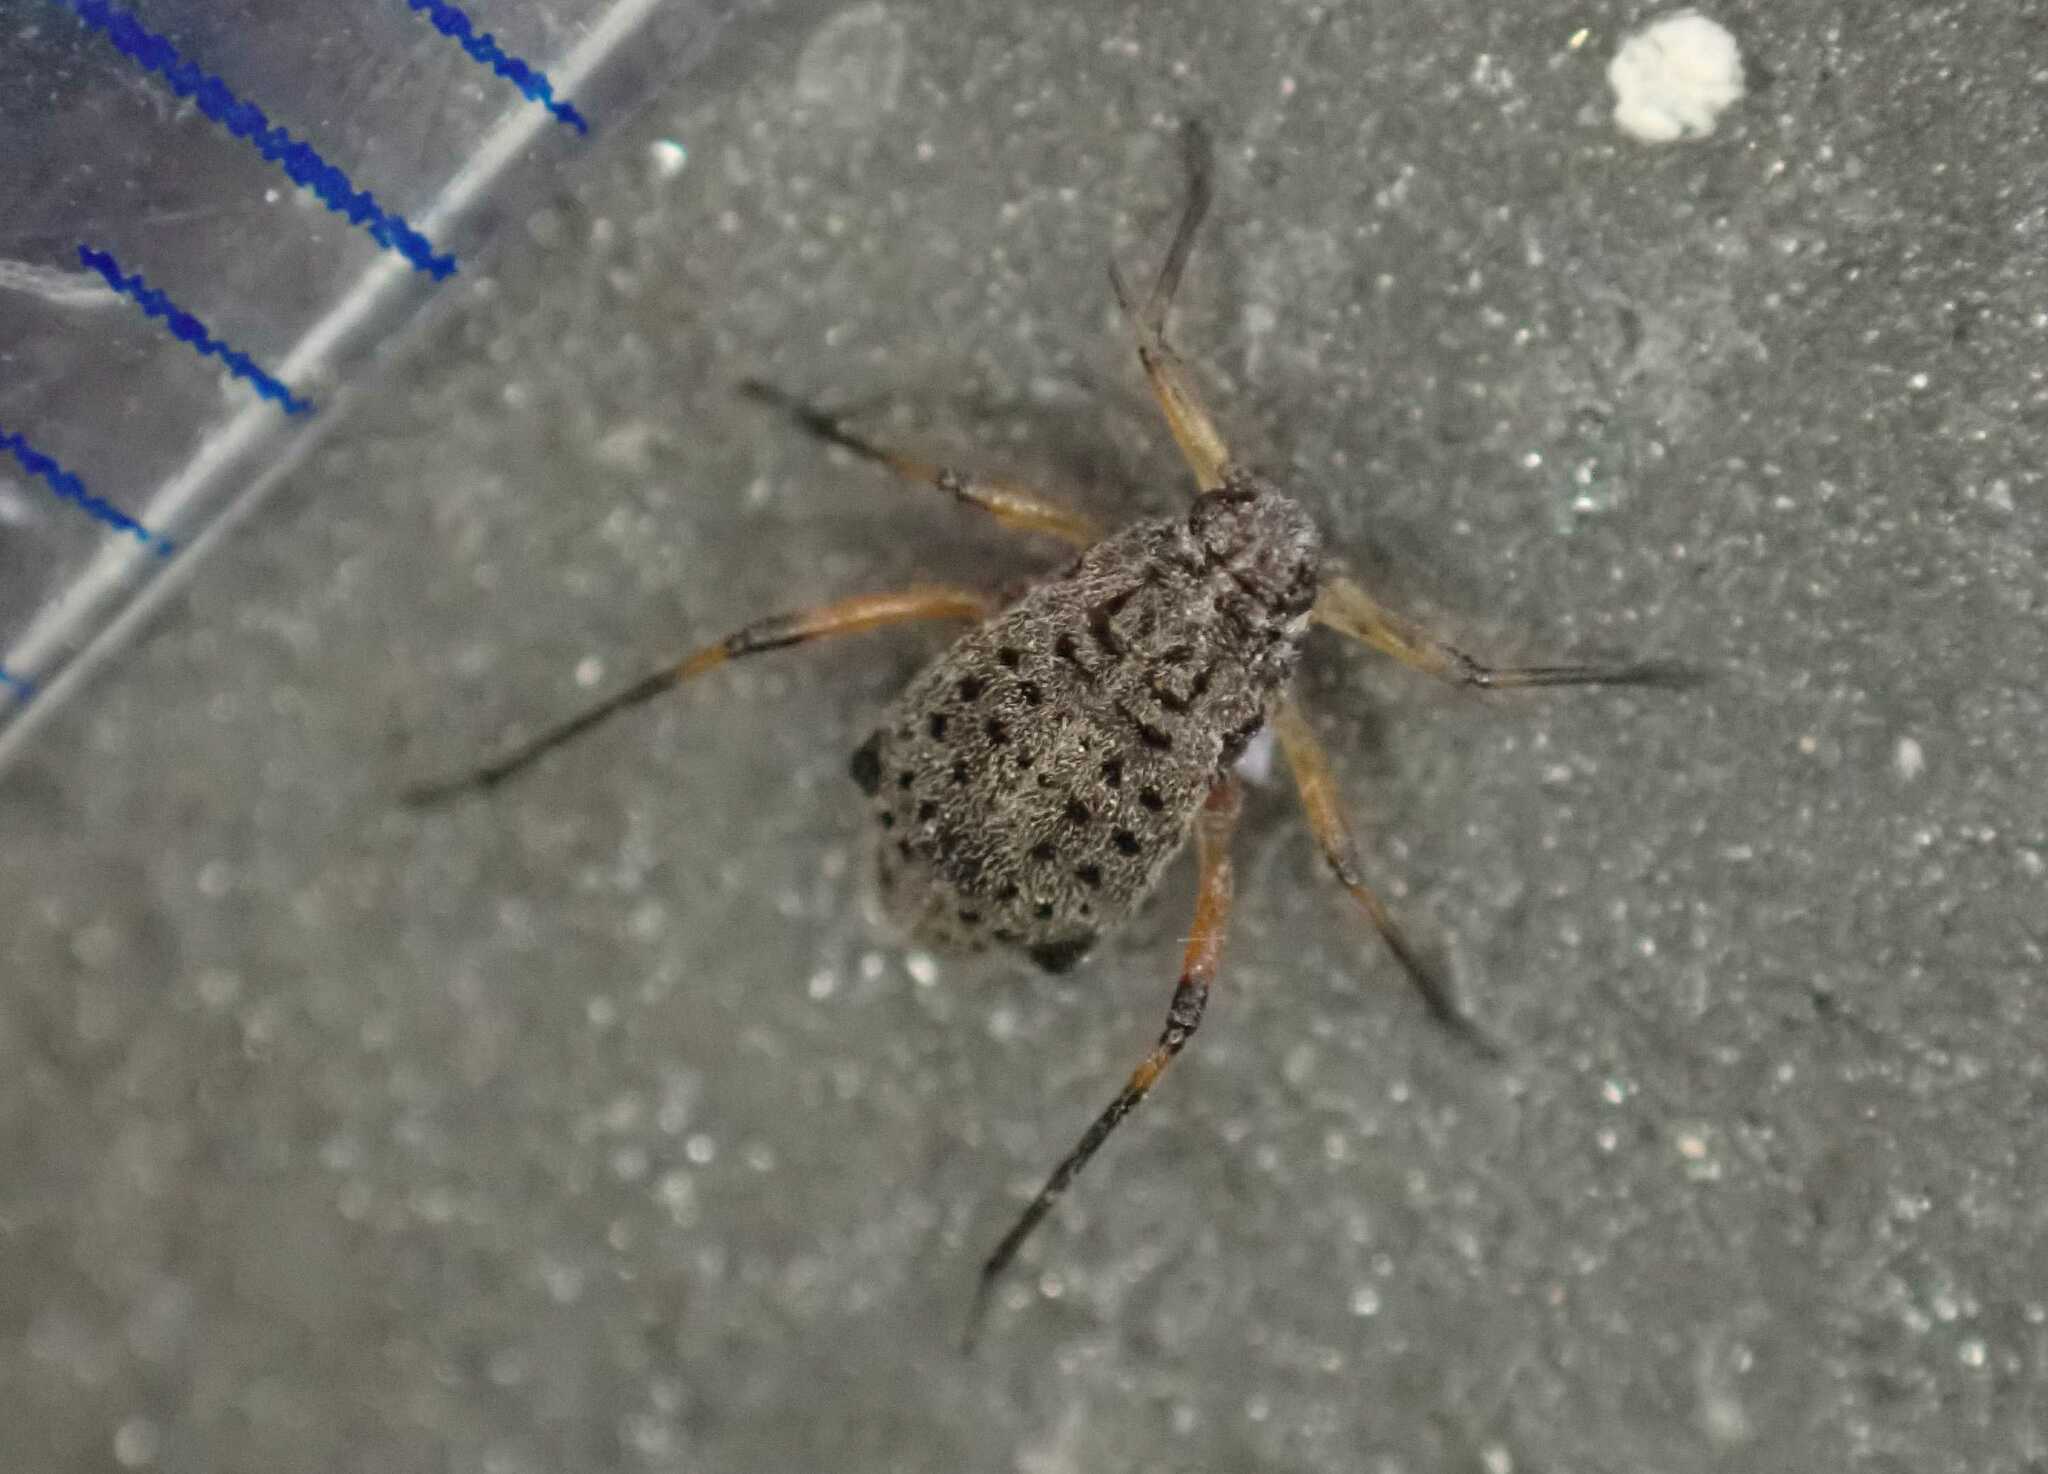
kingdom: Animalia
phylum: Arthropoda
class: Insecta
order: Hemiptera
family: Aphididae
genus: Tuberolachnus
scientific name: Tuberolachnus salignus
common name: Giant willow aphid
